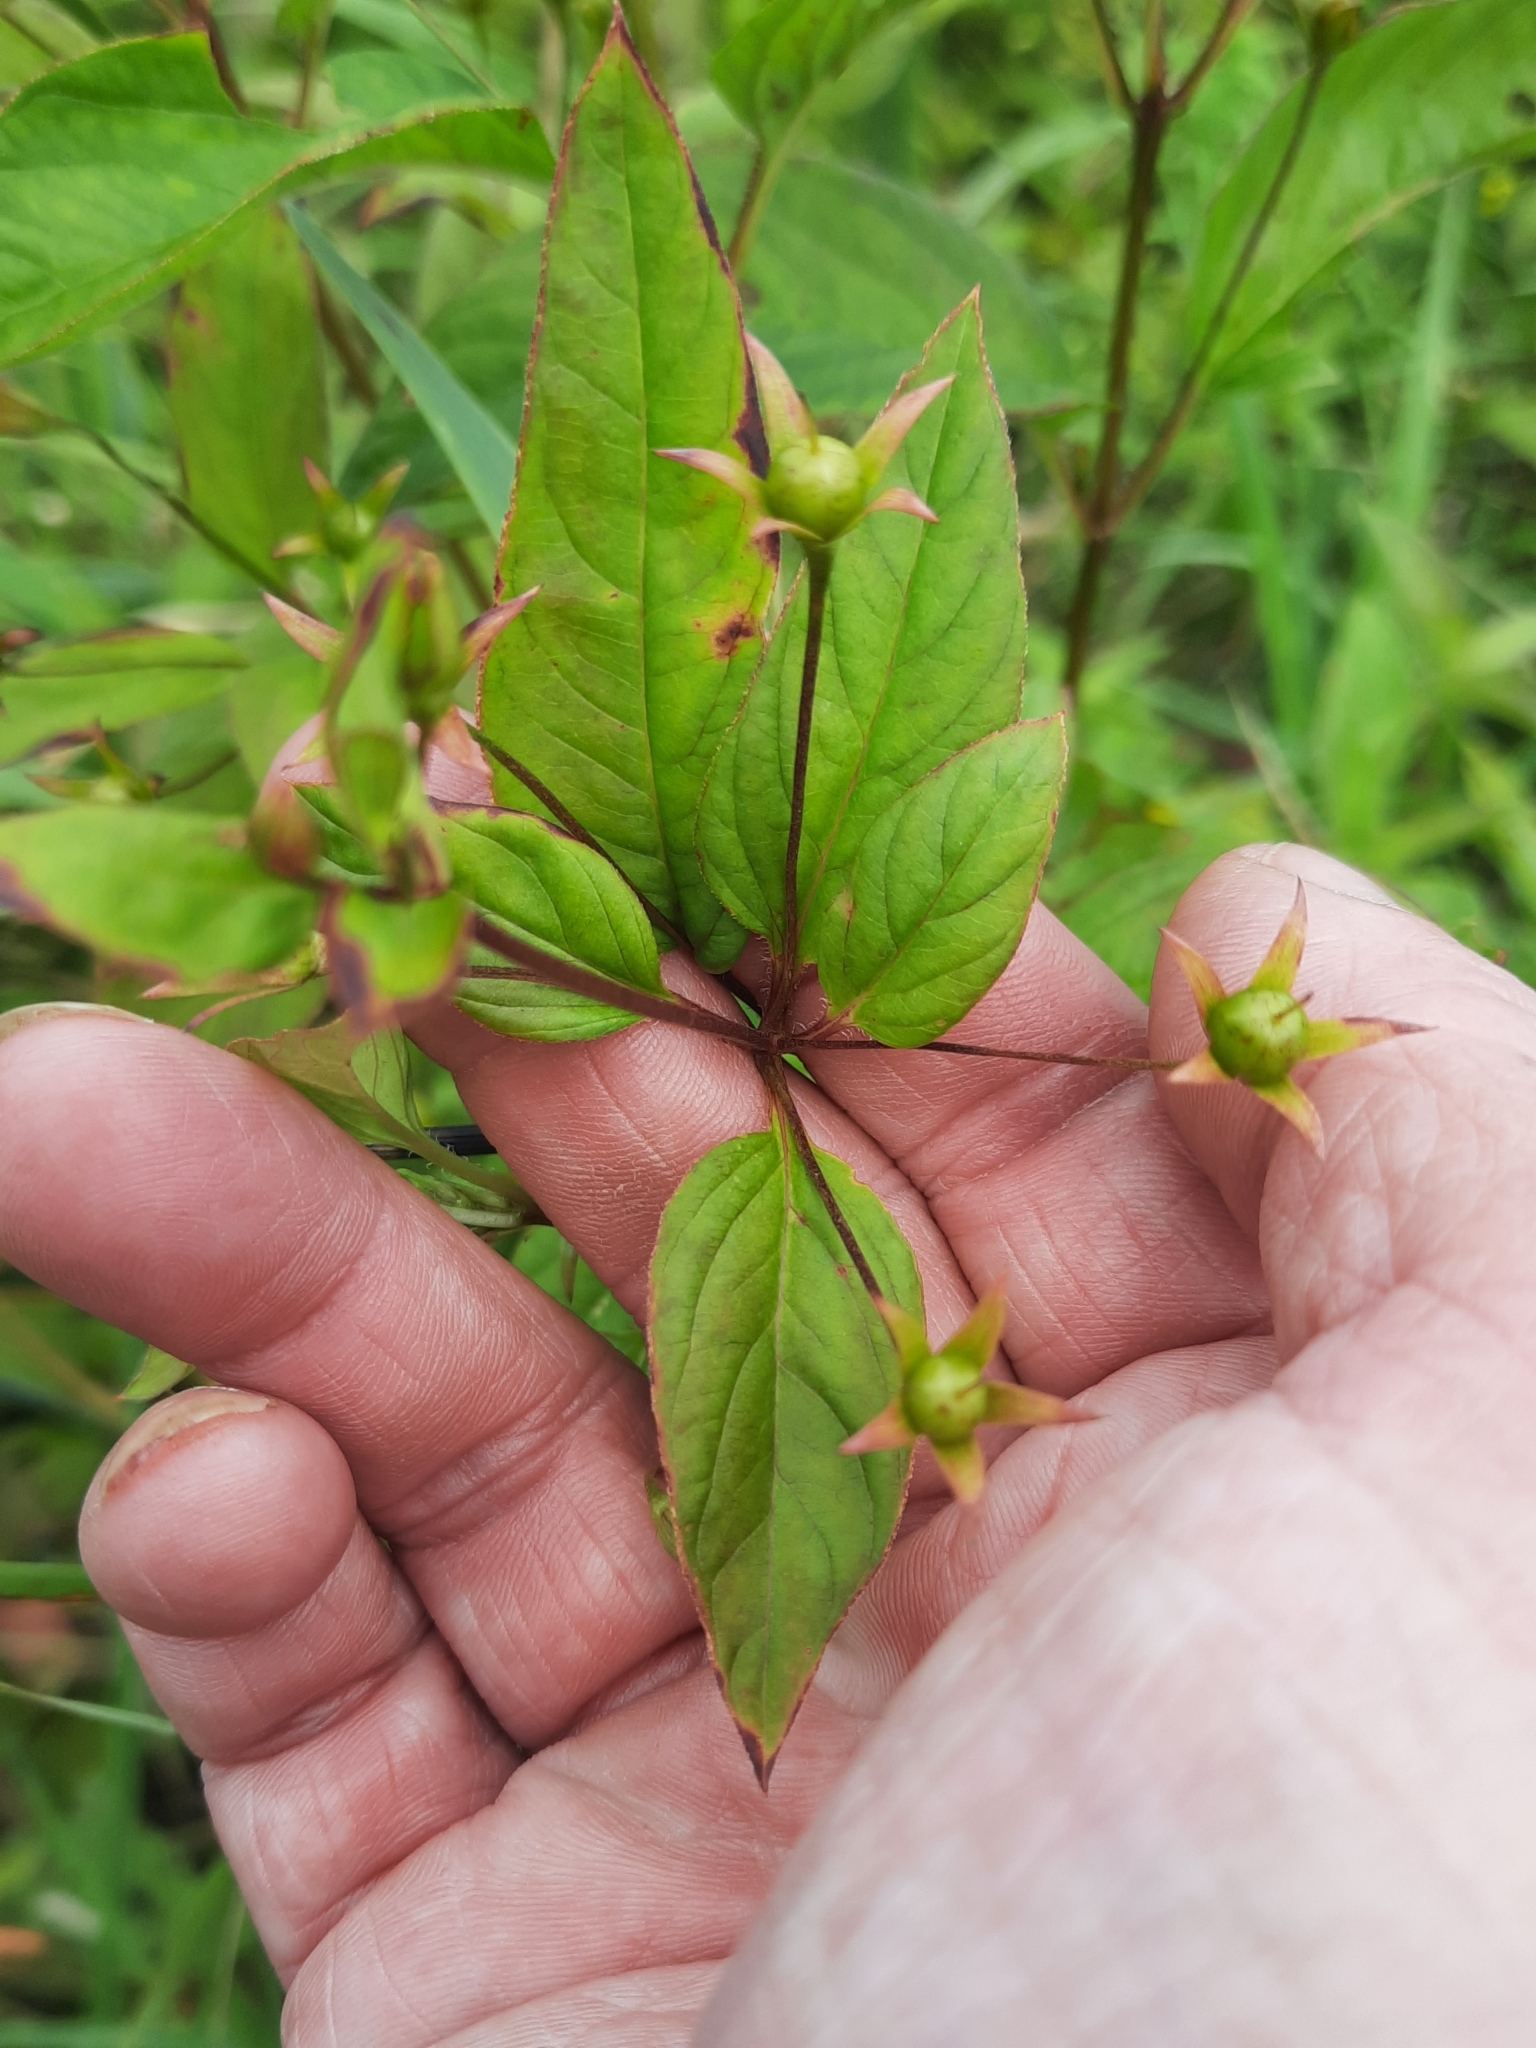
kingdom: Plantae
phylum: Tracheophyta
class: Magnoliopsida
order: Ericales
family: Primulaceae
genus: Lysimachia
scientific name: Lysimachia ciliata
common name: Fringed loosestrife
